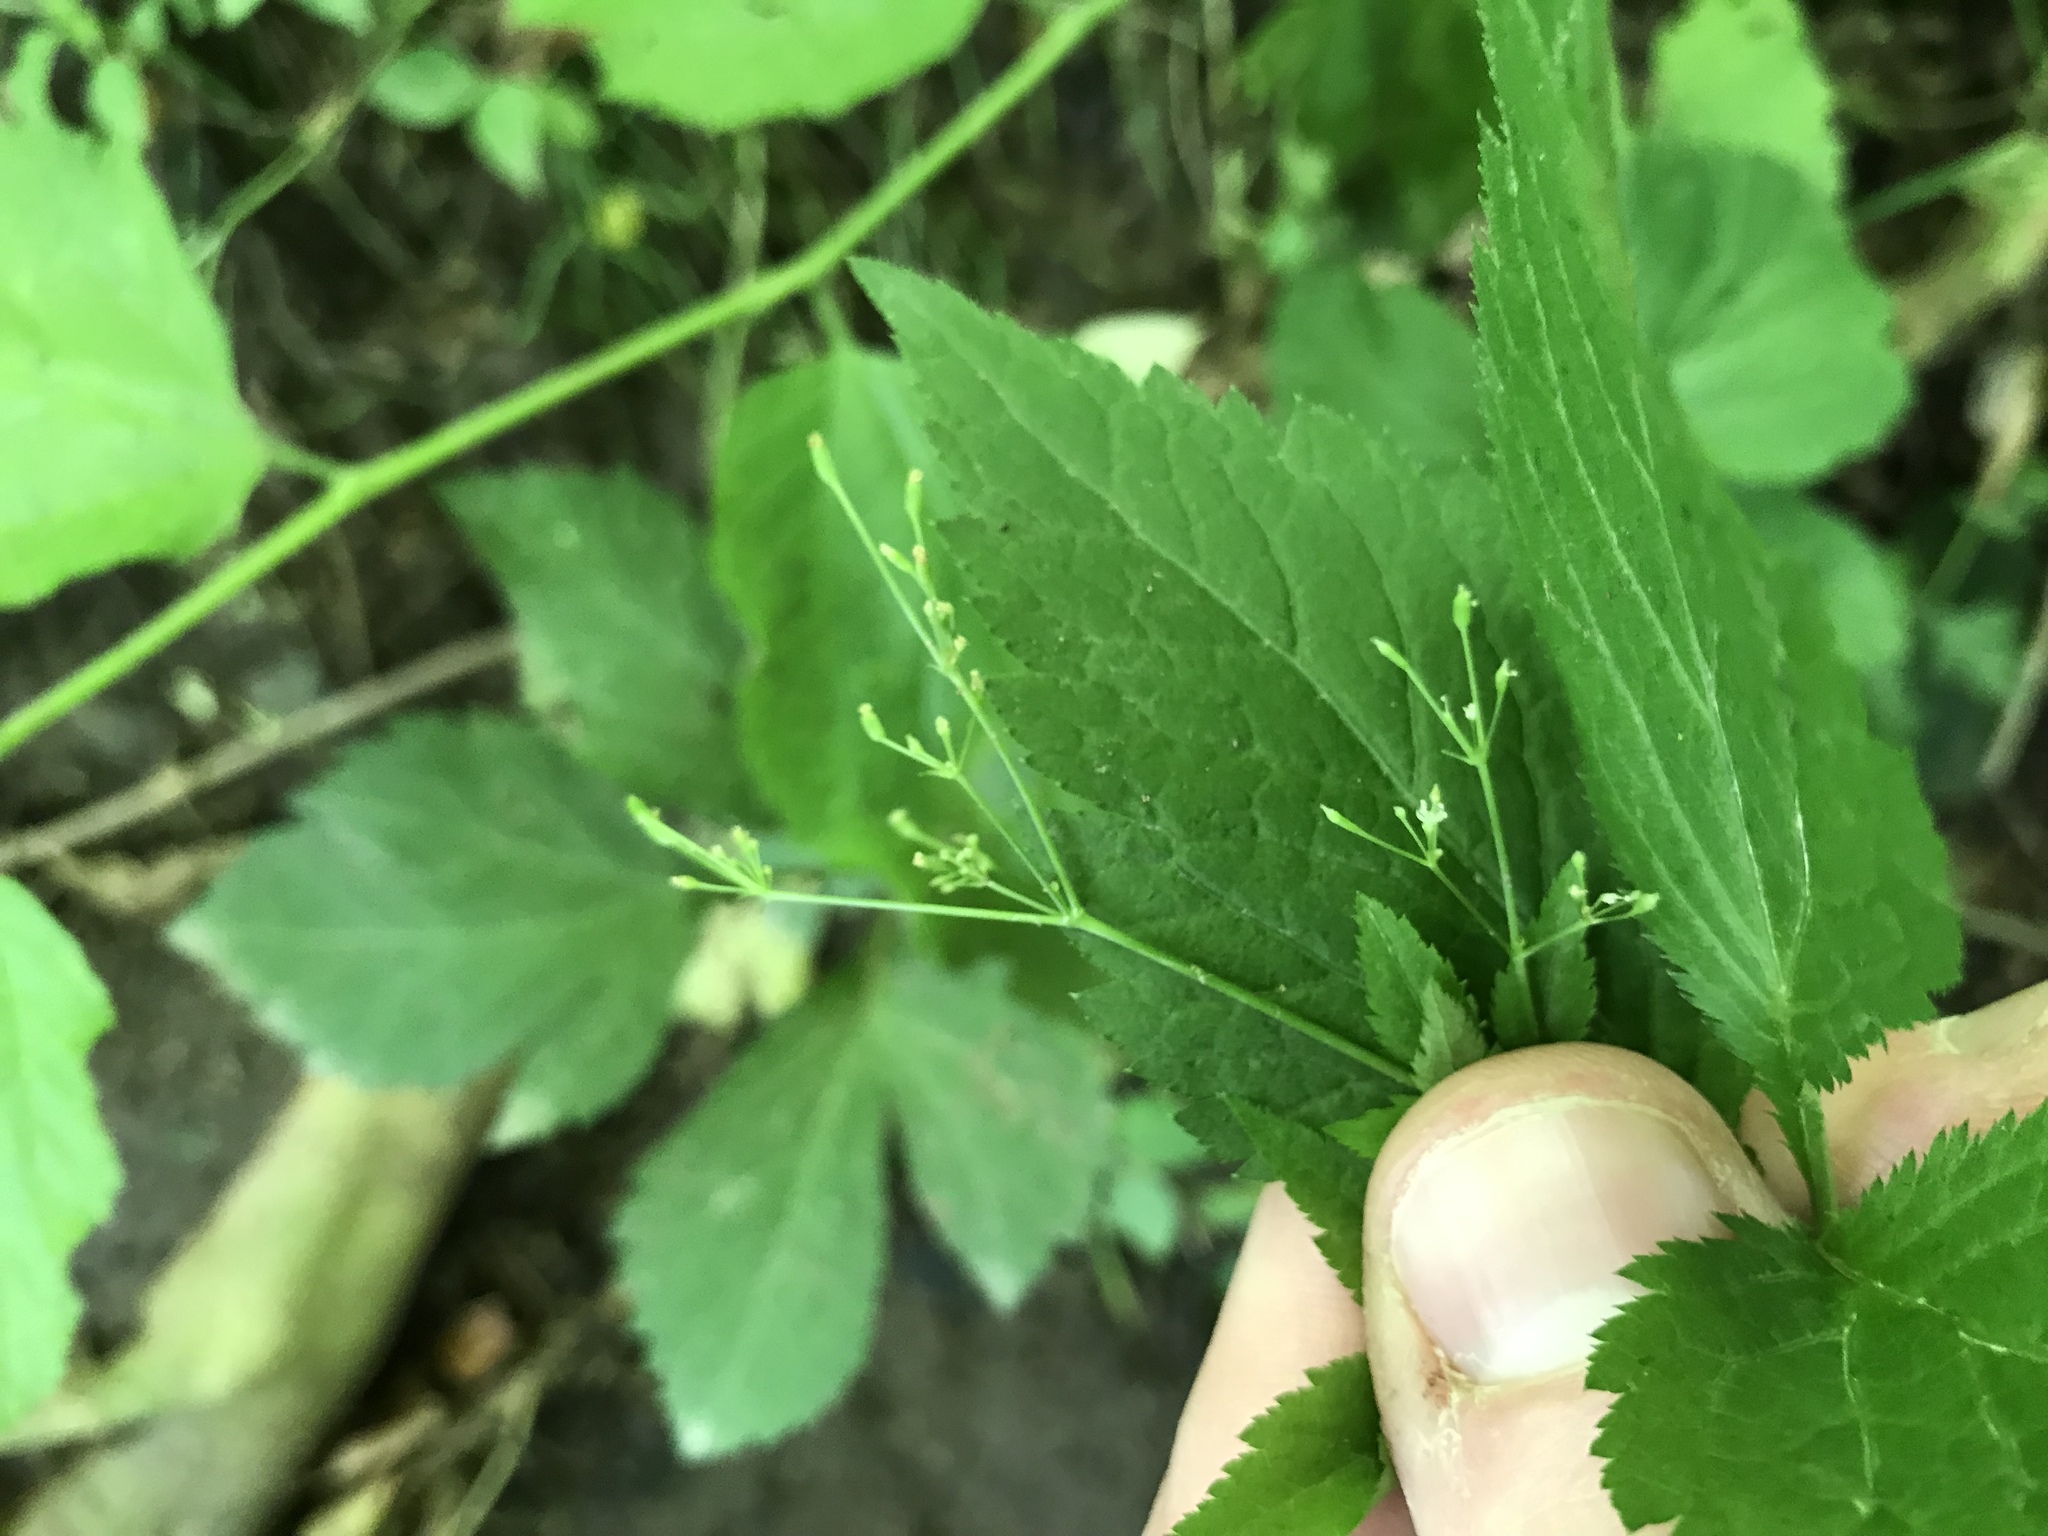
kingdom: Plantae
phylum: Tracheophyta
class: Magnoliopsida
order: Apiales
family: Apiaceae
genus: Cryptotaenia
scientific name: Cryptotaenia canadensis
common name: Honewort
